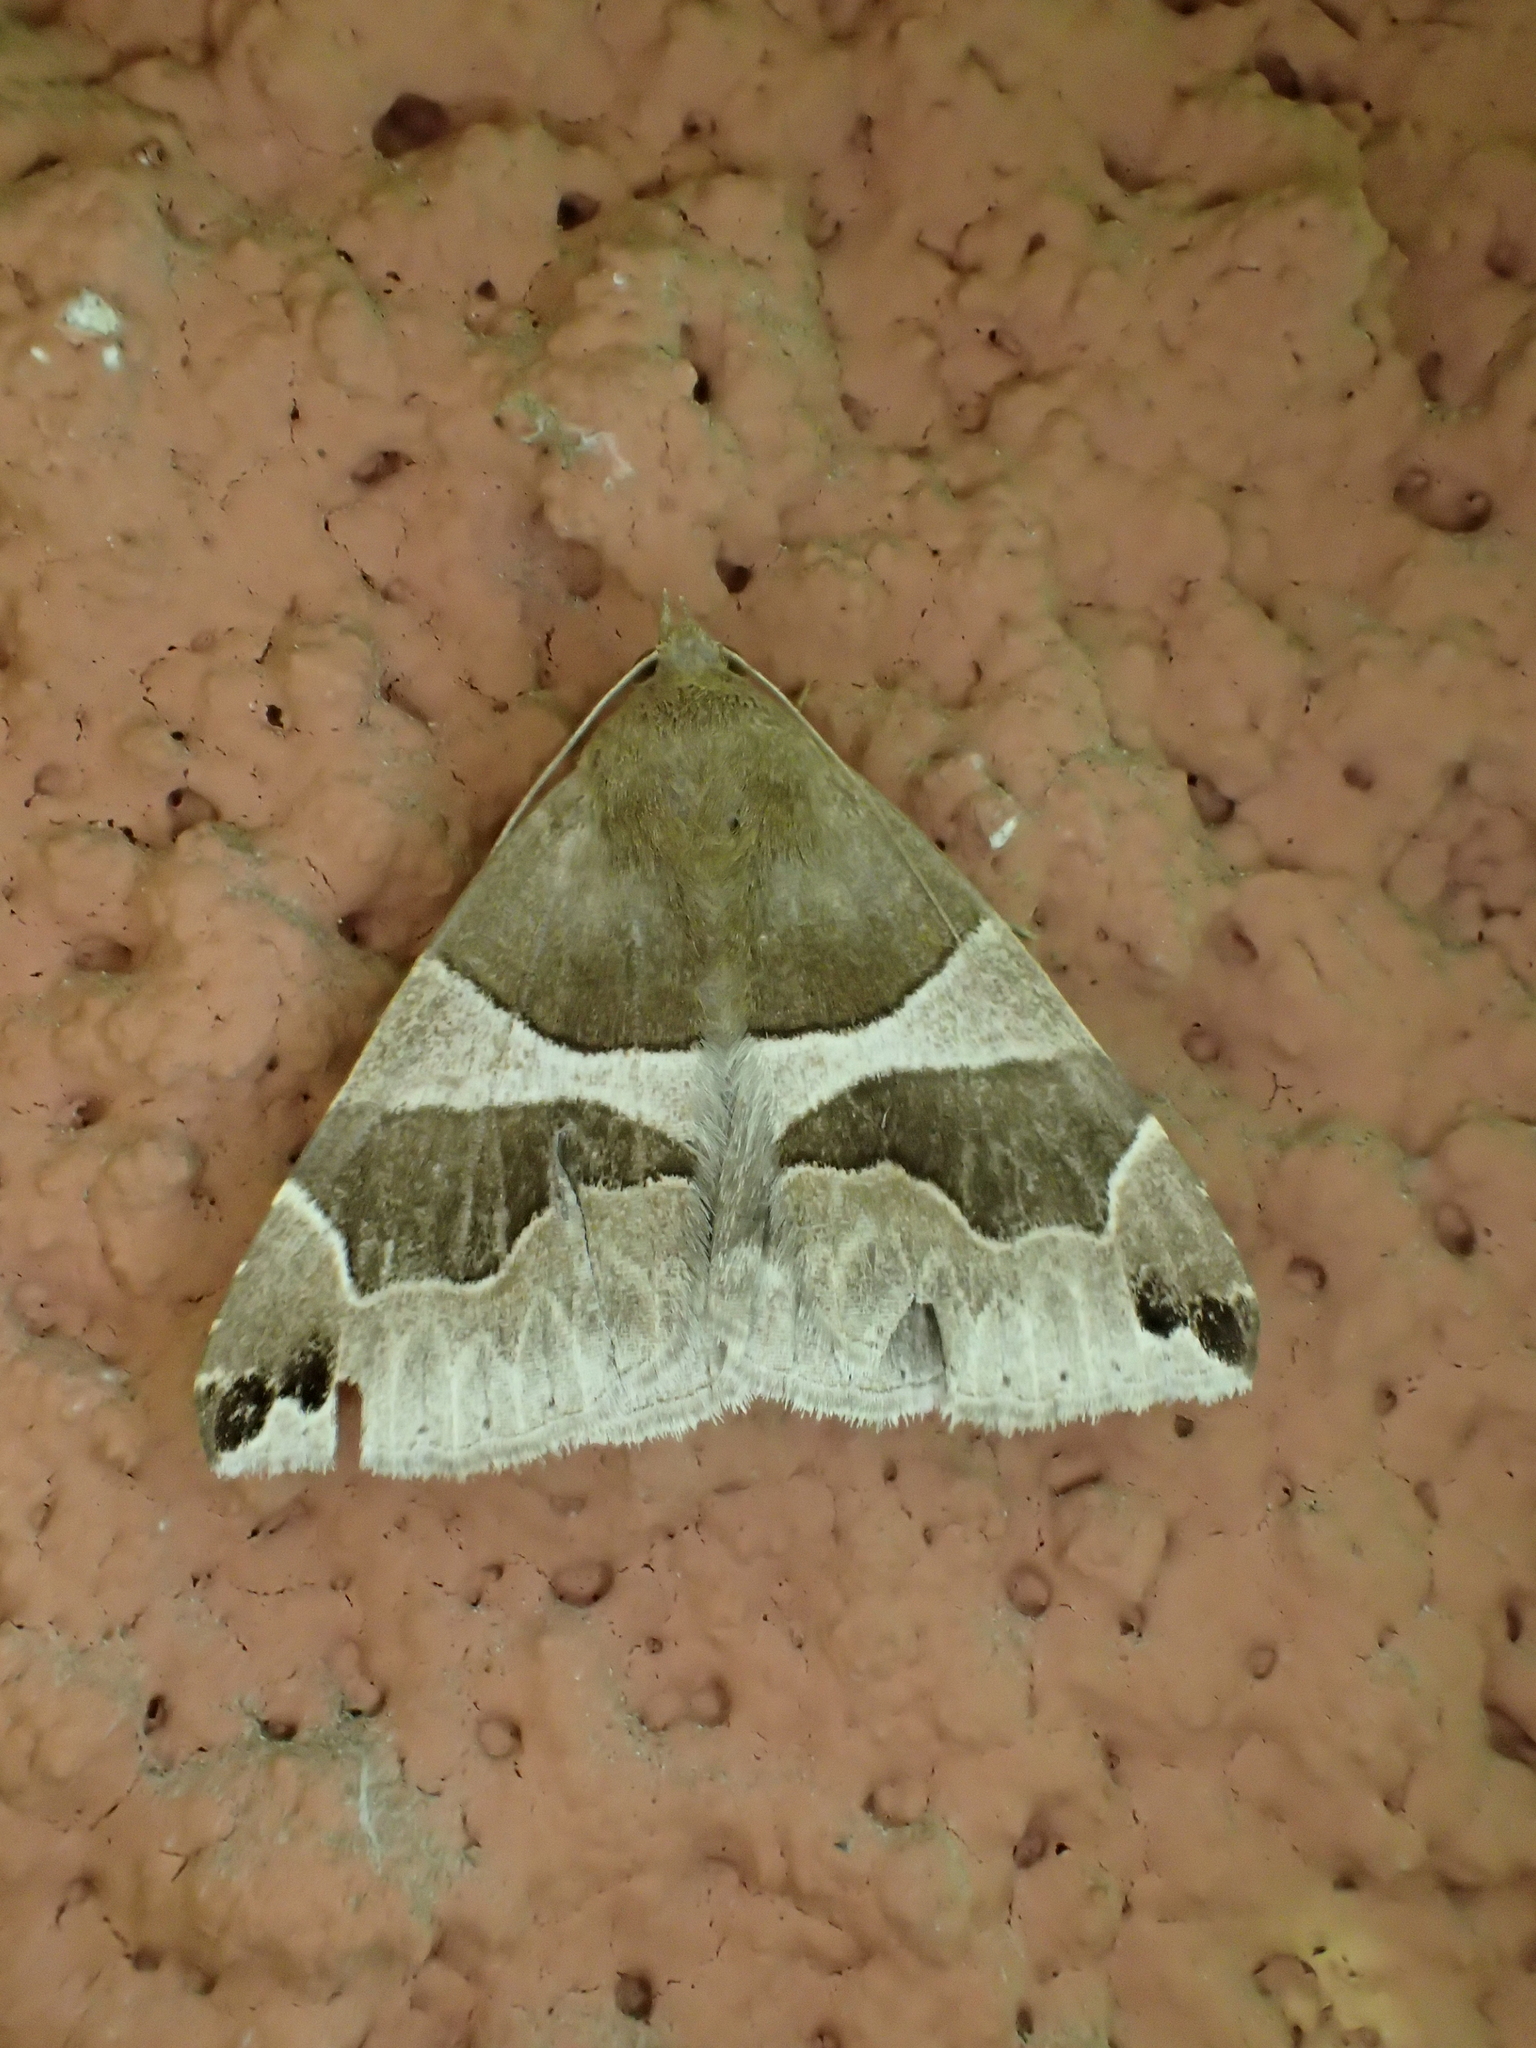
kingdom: Animalia
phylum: Arthropoda
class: Insecta
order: Lepidoptera
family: Erebidae
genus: Dysgonia
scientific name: Dysgonia algira
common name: Passenger
